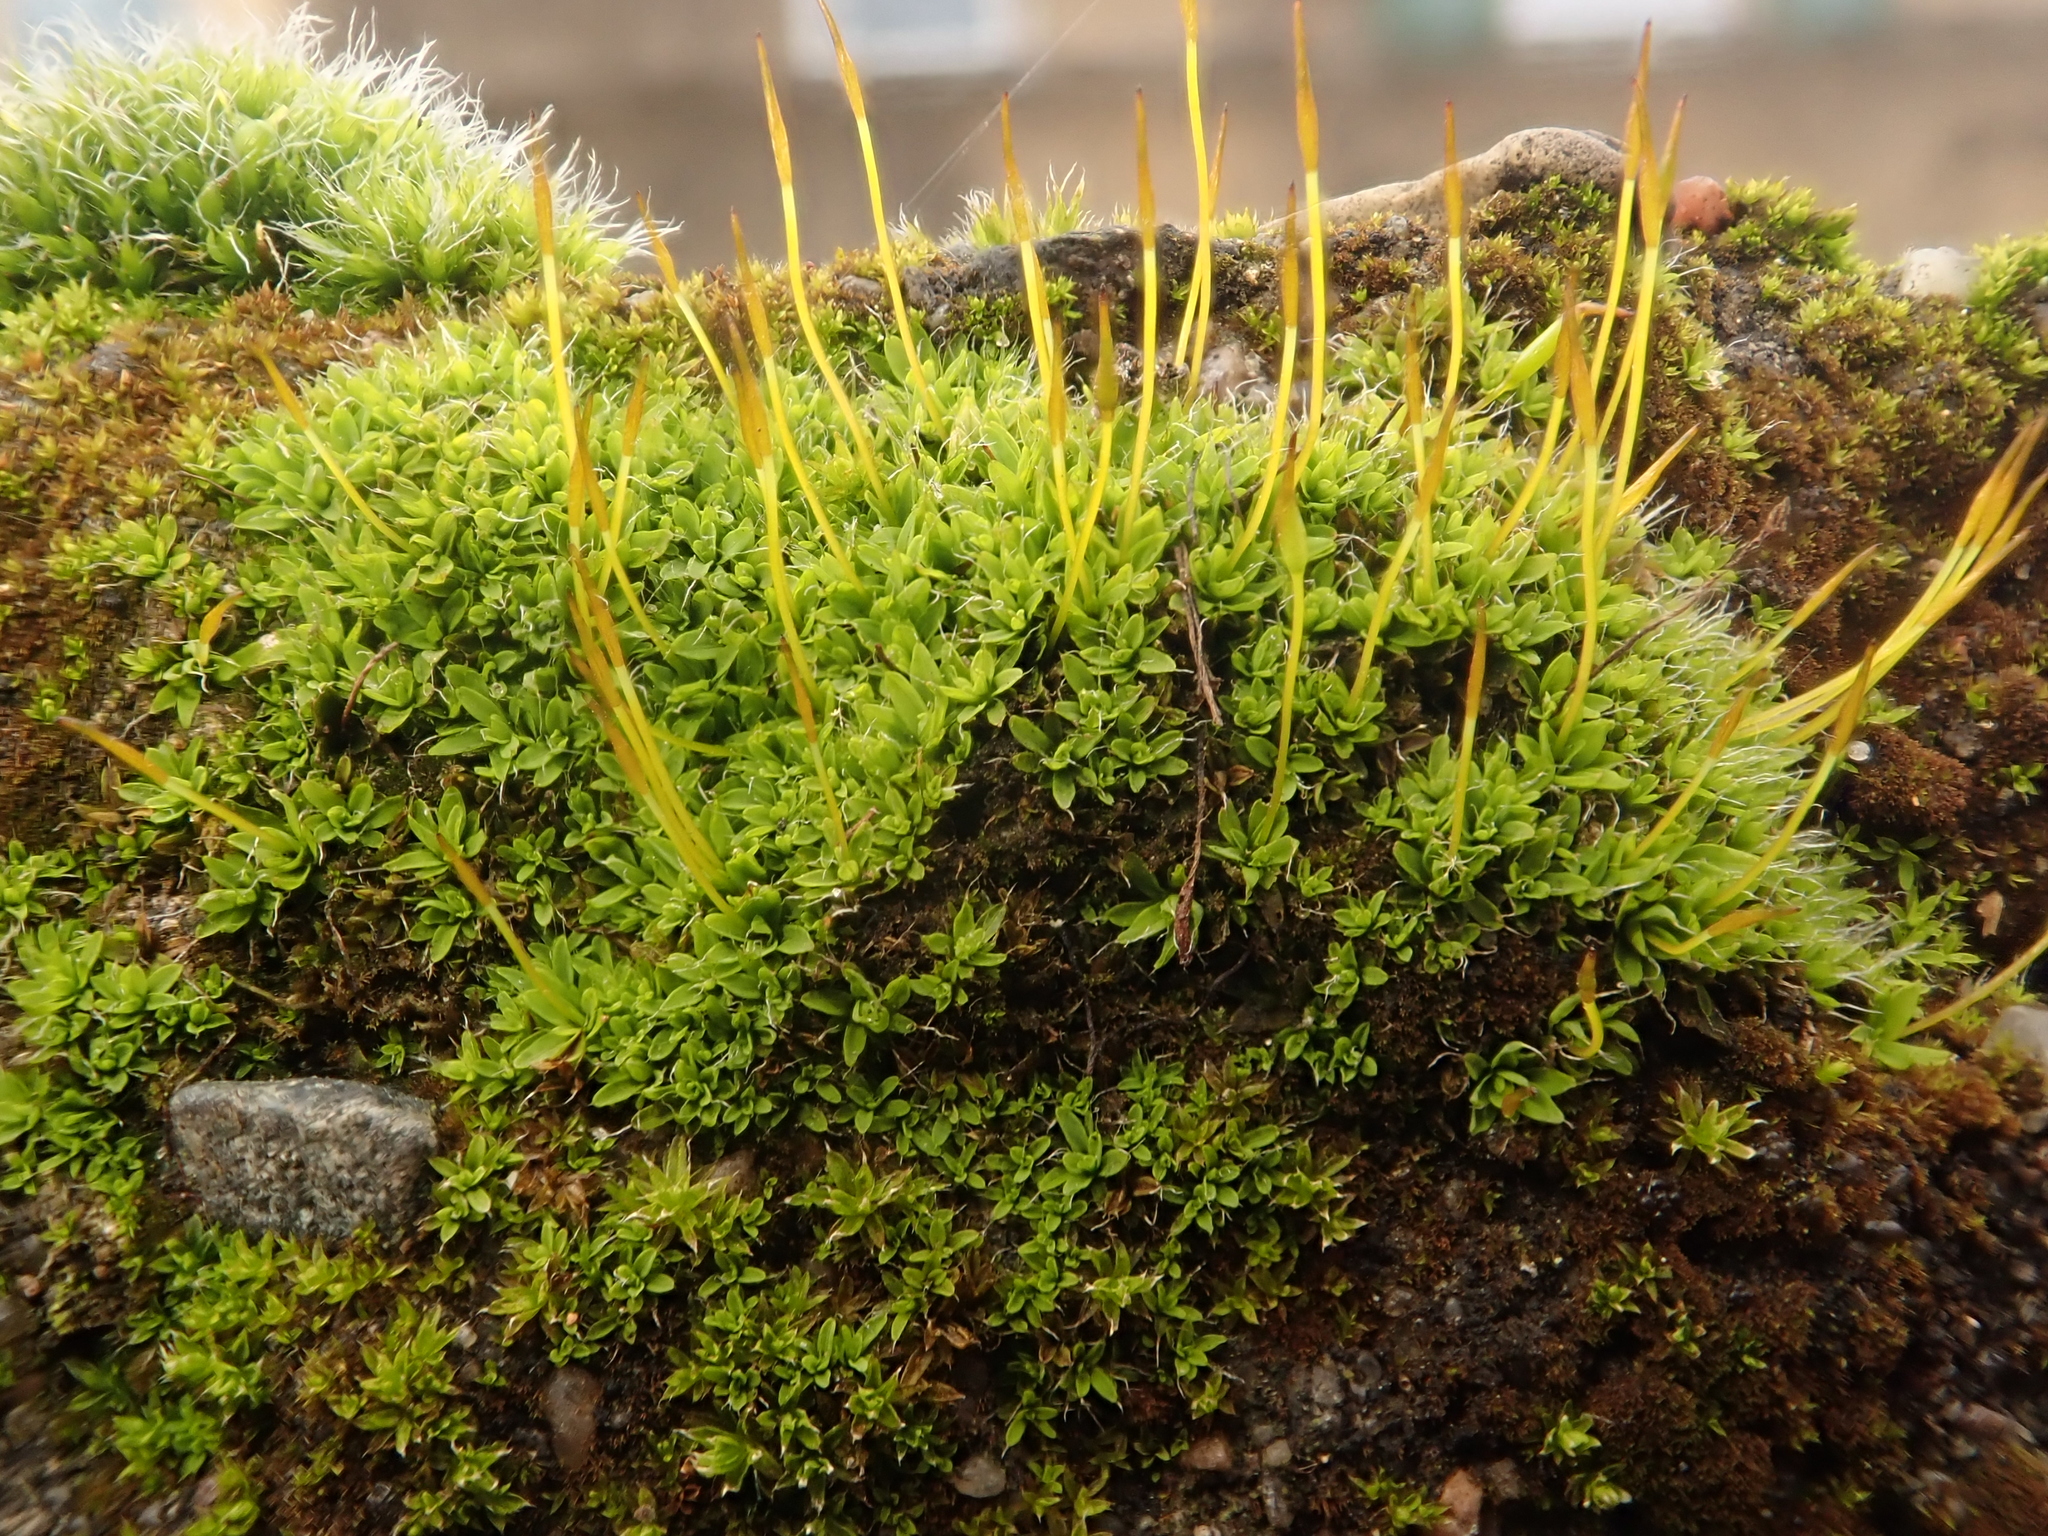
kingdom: Plantae
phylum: Bryophyta
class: Bryopsida
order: Pottiales
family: Pottiaceae
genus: Tortula
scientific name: Tortula muralis
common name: Wall screw-moss
